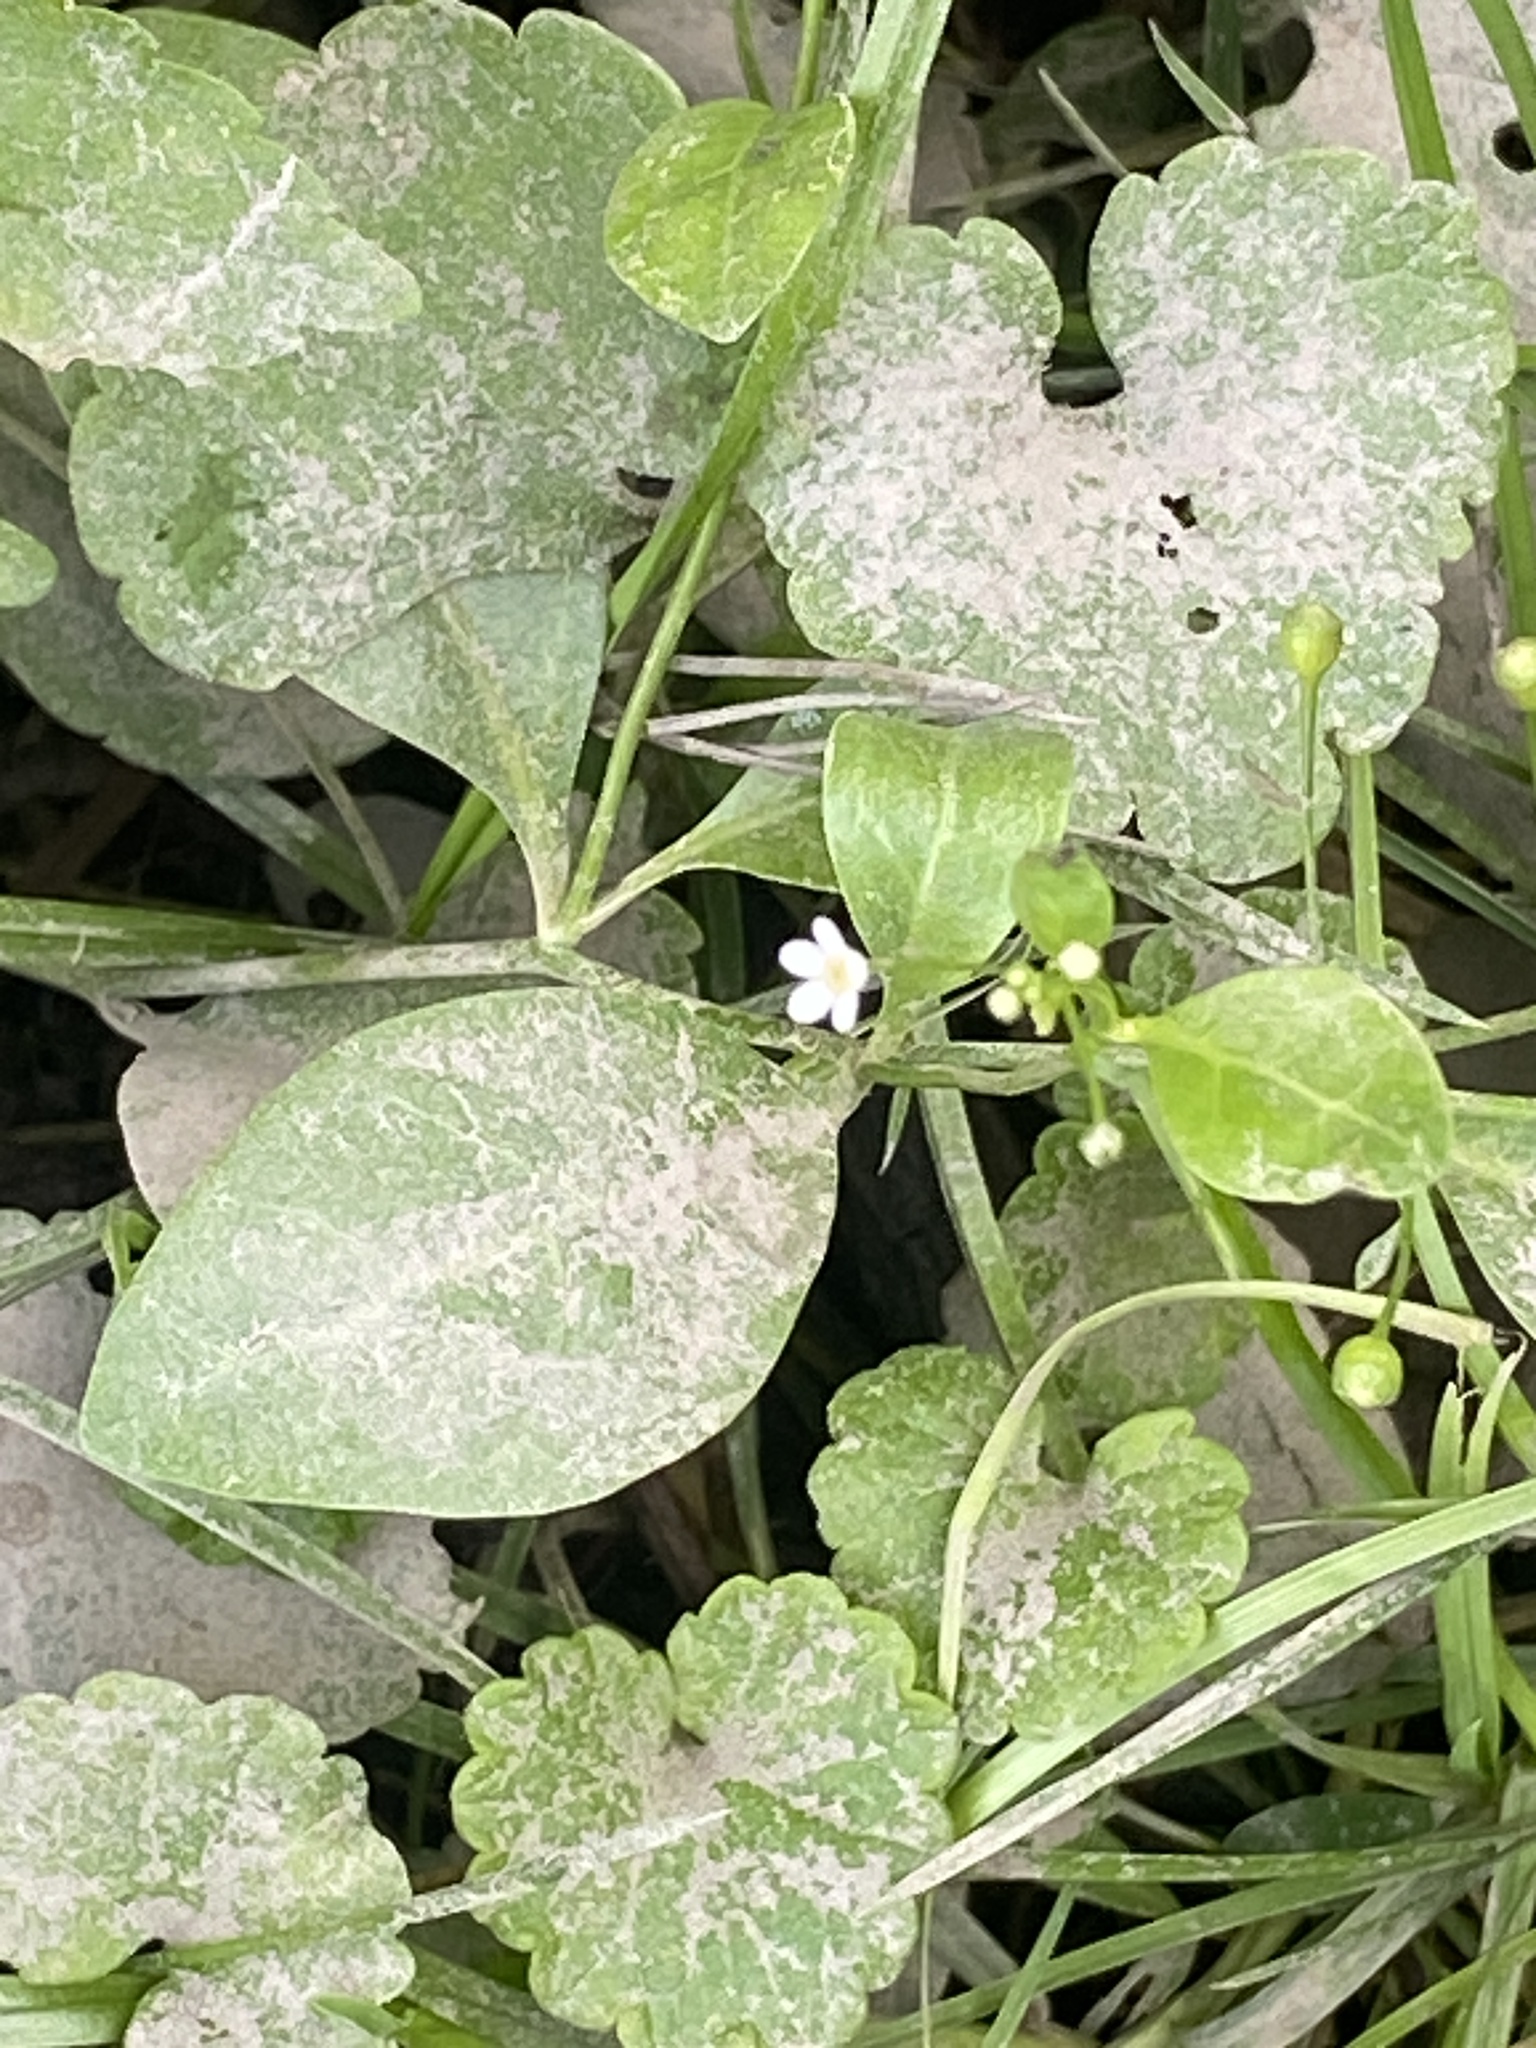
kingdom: Plantae
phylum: Tracheophyta
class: Magnoliopsida
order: Ericales
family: Primulaceae
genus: Samolus
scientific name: Samolus parviflorus
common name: False water pimpernel
